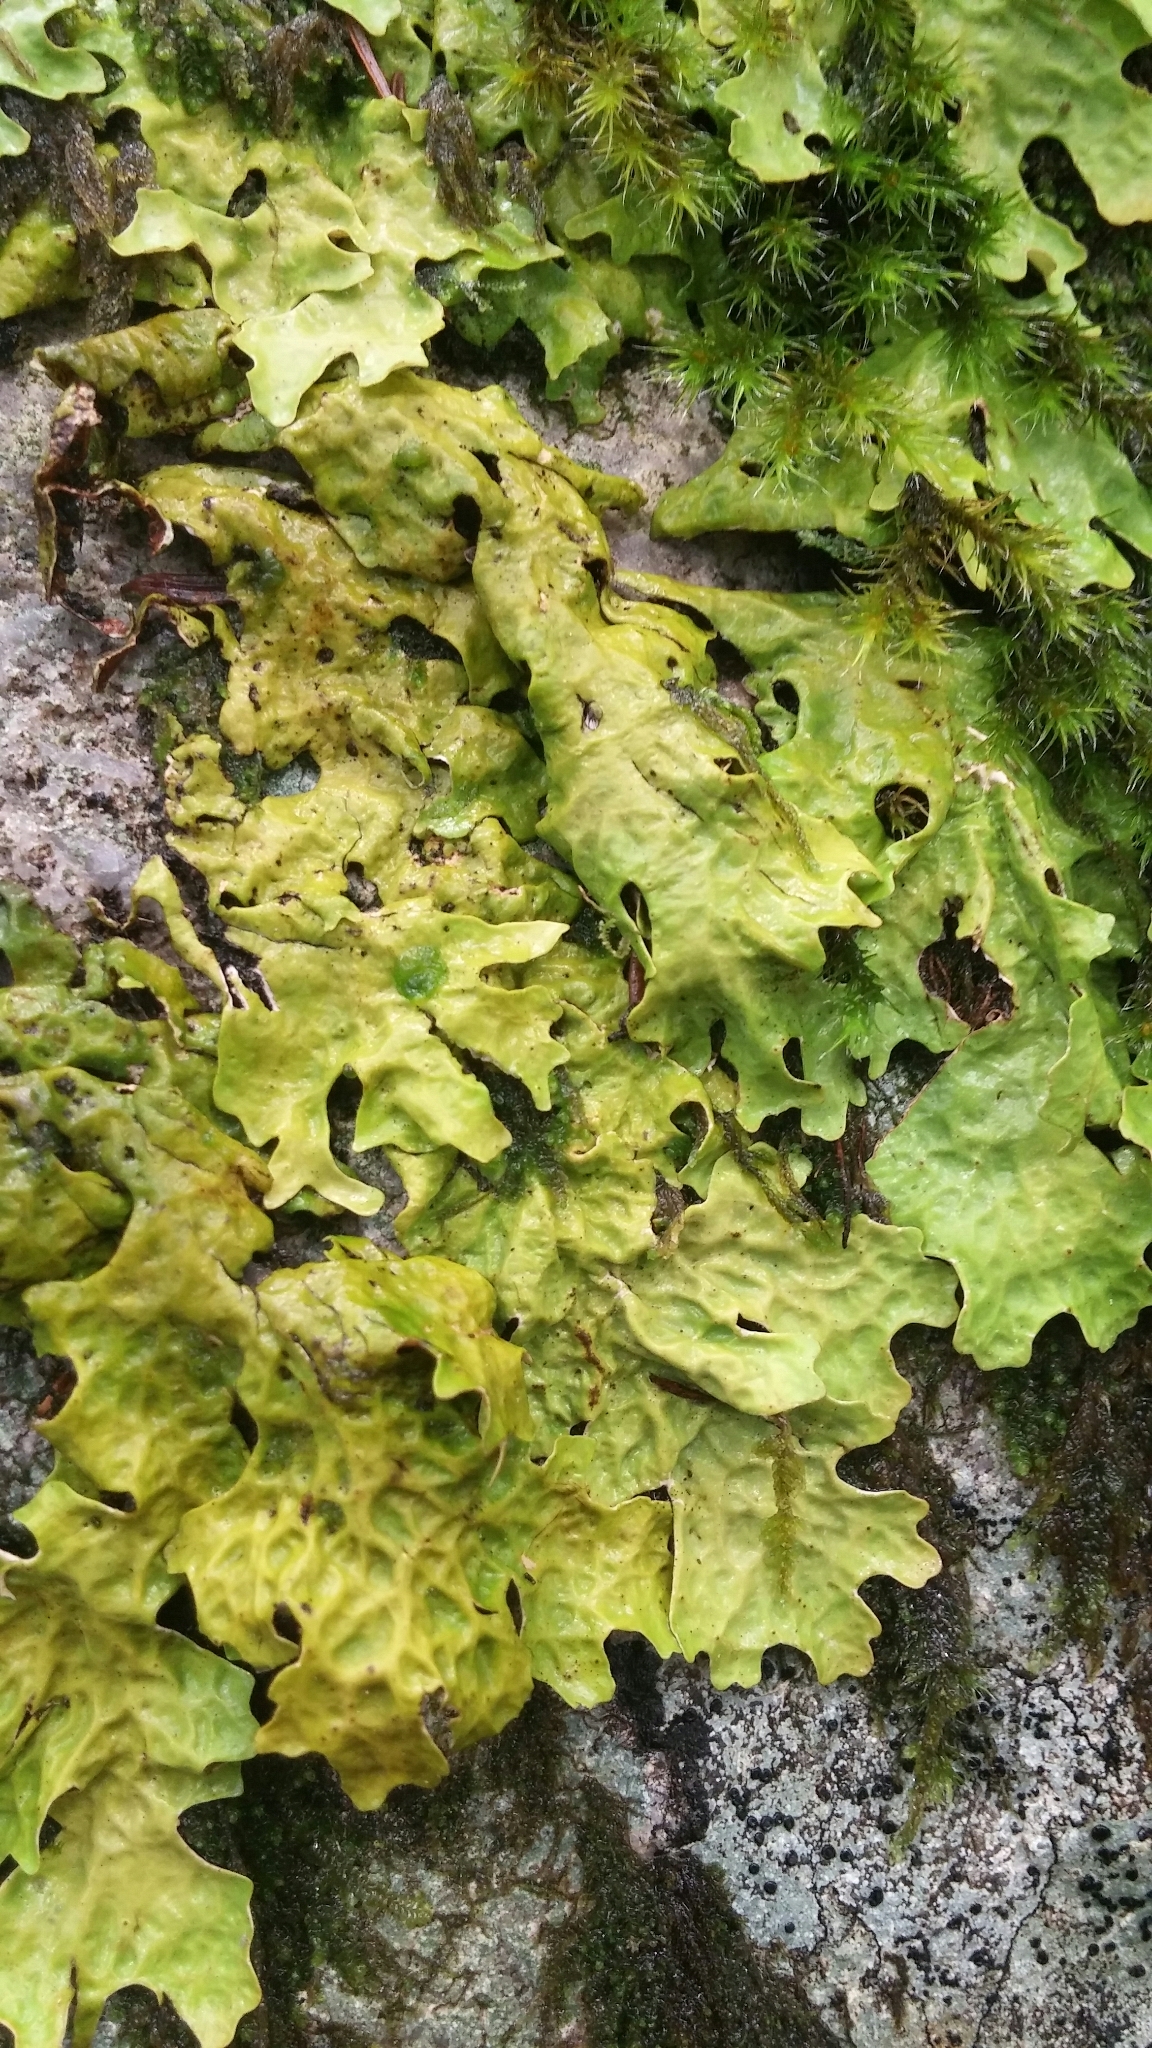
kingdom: Fungi
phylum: Ascomycota
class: Lecanoromycetes
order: Peltigerales
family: Lobariaceae
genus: Lobaria
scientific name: Lobaria pulmonaria
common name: Lungwort
